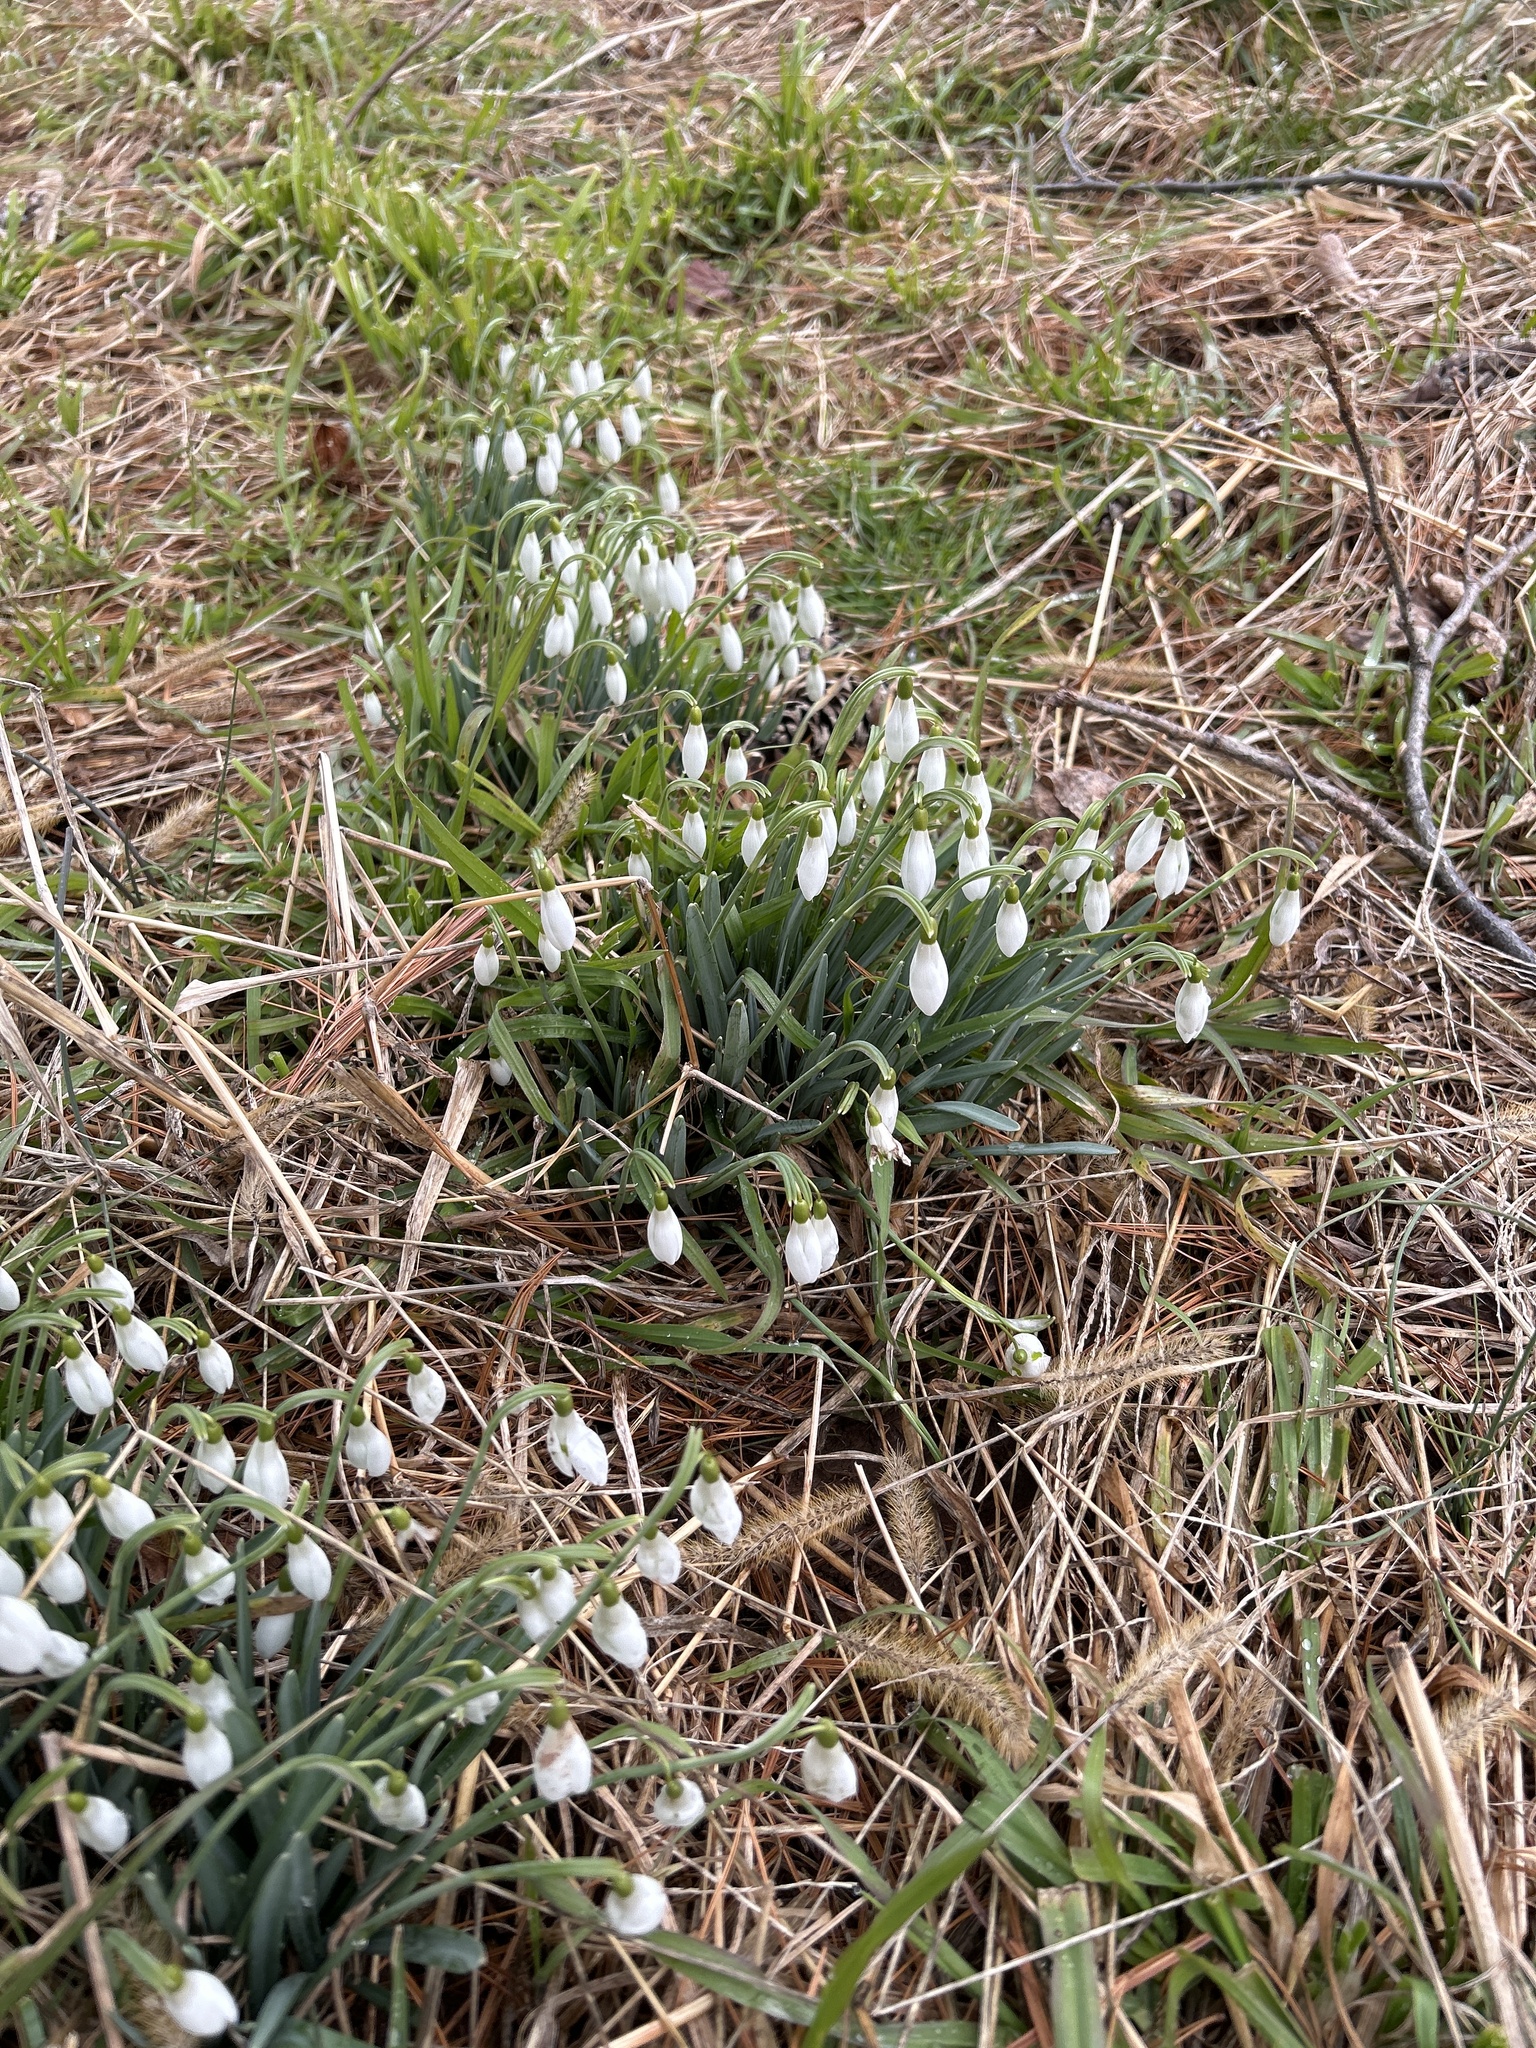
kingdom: Plantae
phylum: Tracheophyta
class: Liliopsida
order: Asparagales
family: Amaryllidaceae
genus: Galanthus
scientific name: Galanthus nivalis
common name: Snowdrop
